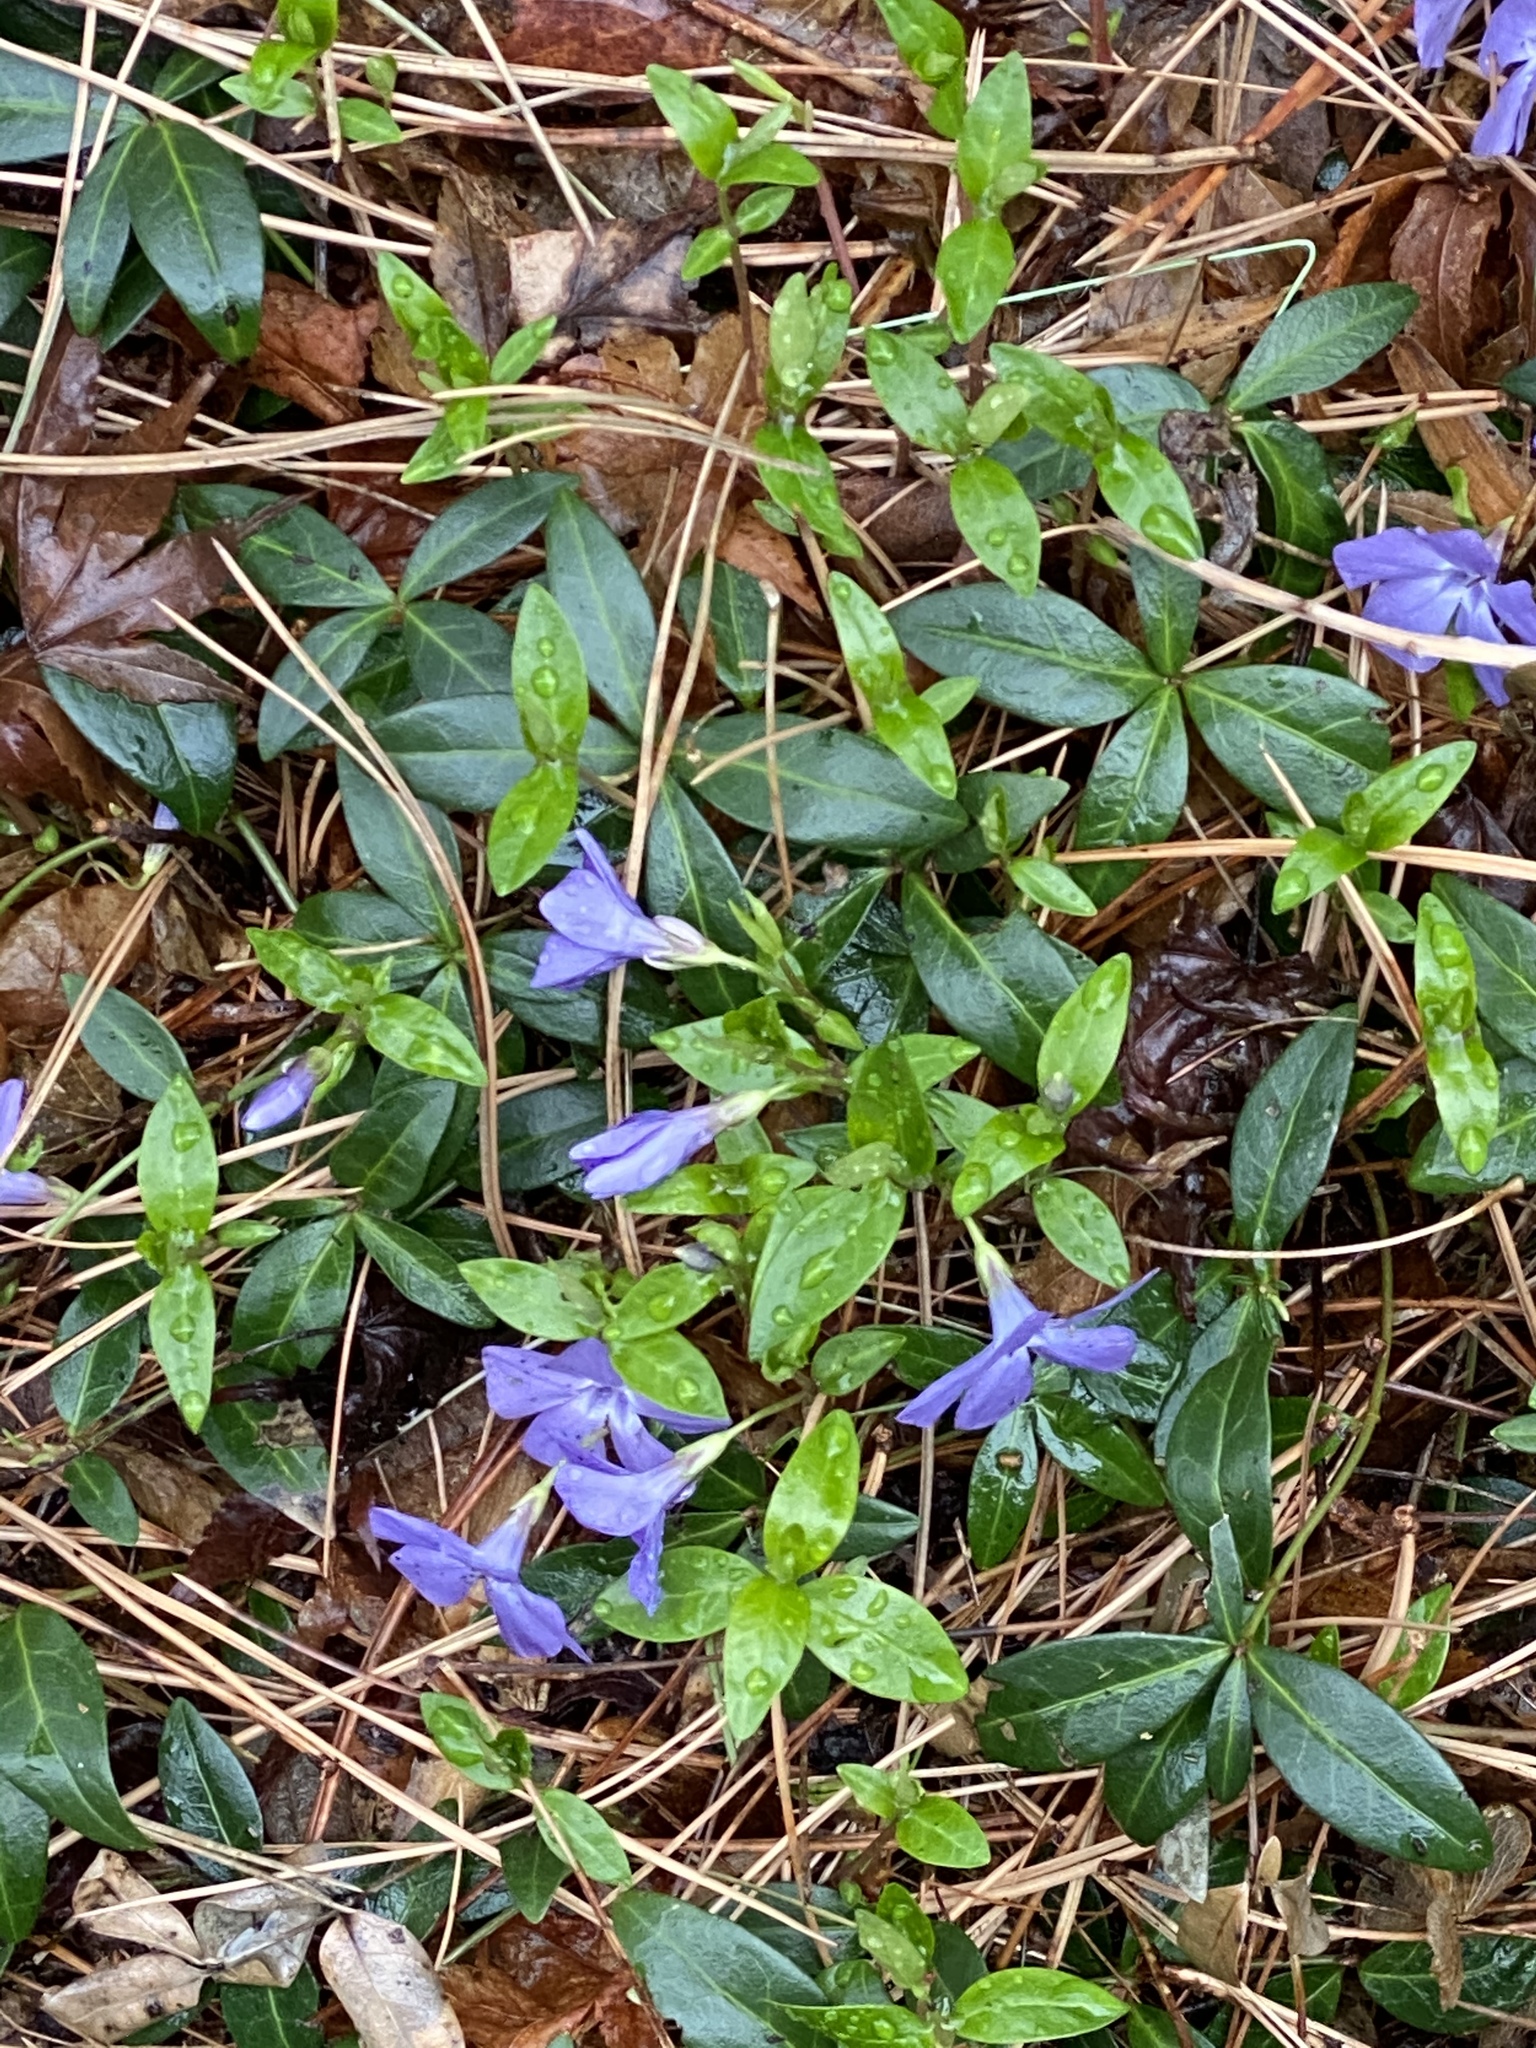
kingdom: Plantae
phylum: Tracheophyta
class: Magnoliopsida
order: Gentianales
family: Apocynaceae
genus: Vinca
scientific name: Vinca minor
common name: Lesser periwinkle
